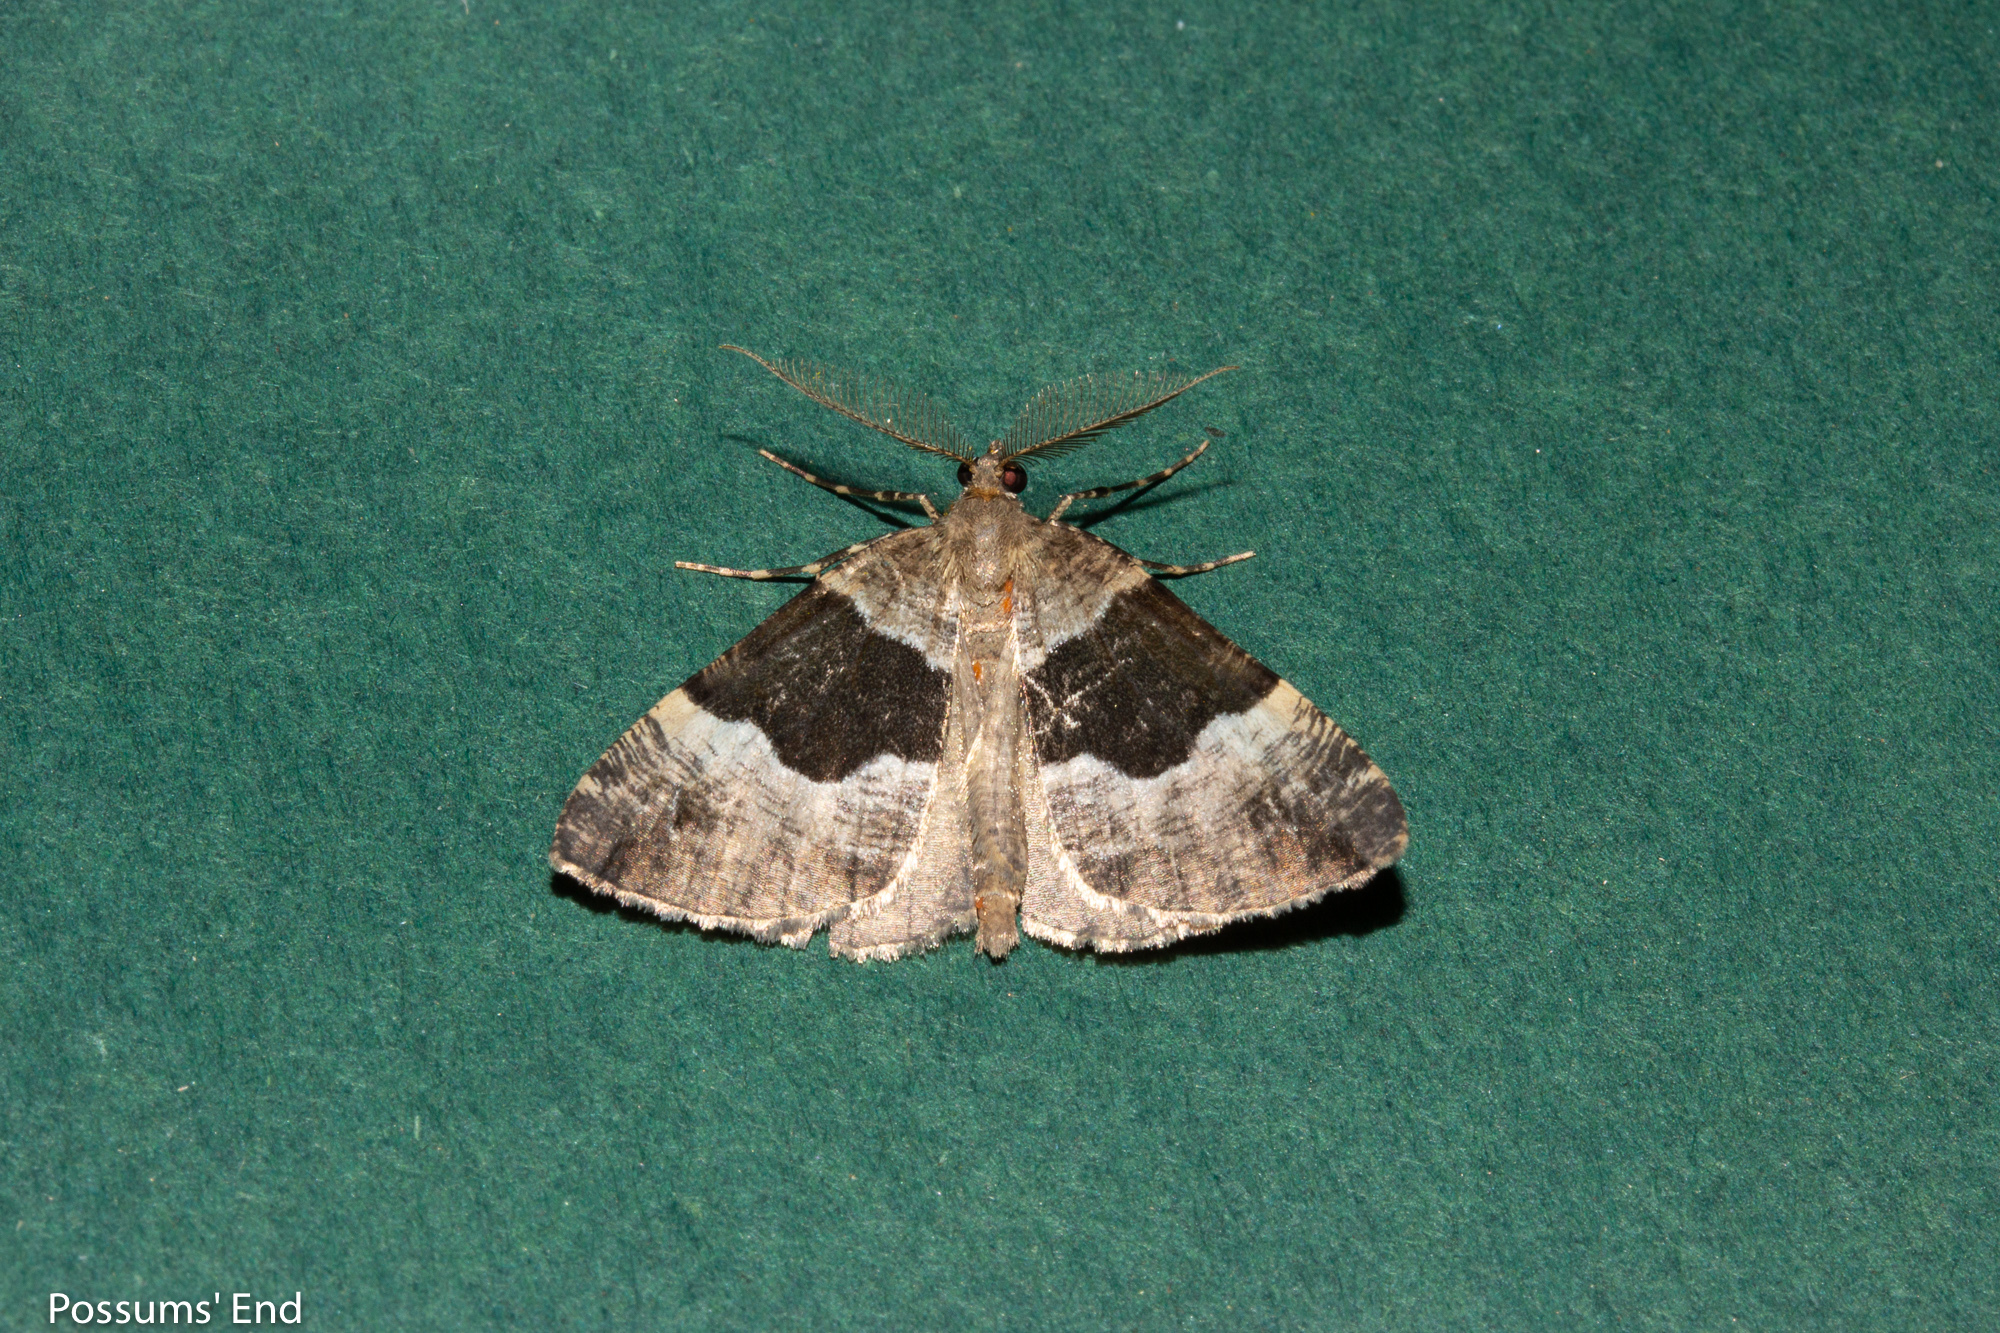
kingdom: Animalia
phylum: Arthropoda
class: Insecta
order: Lepidoptera
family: Geometridae
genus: Pseudocoremia
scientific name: Pseudocoremia
